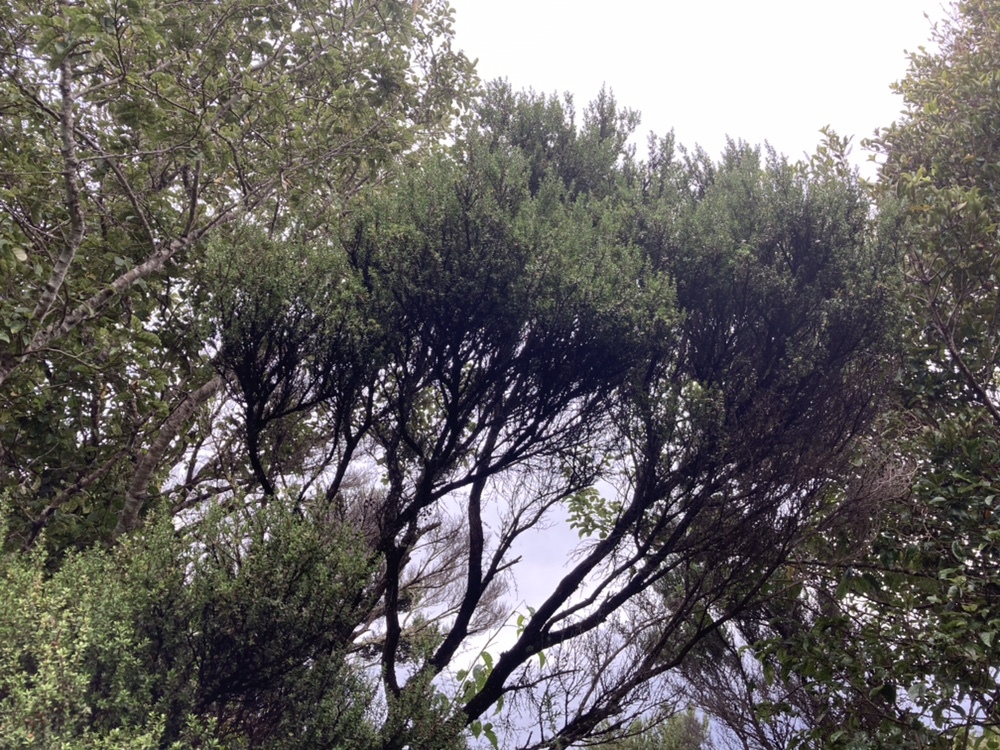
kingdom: Plantae
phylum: Tracheophyta
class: Magnoliopsida
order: Myrtales
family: Myrtaceae
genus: Leptospermum
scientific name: Leptospermum scoparium
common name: Broom tea-tree
